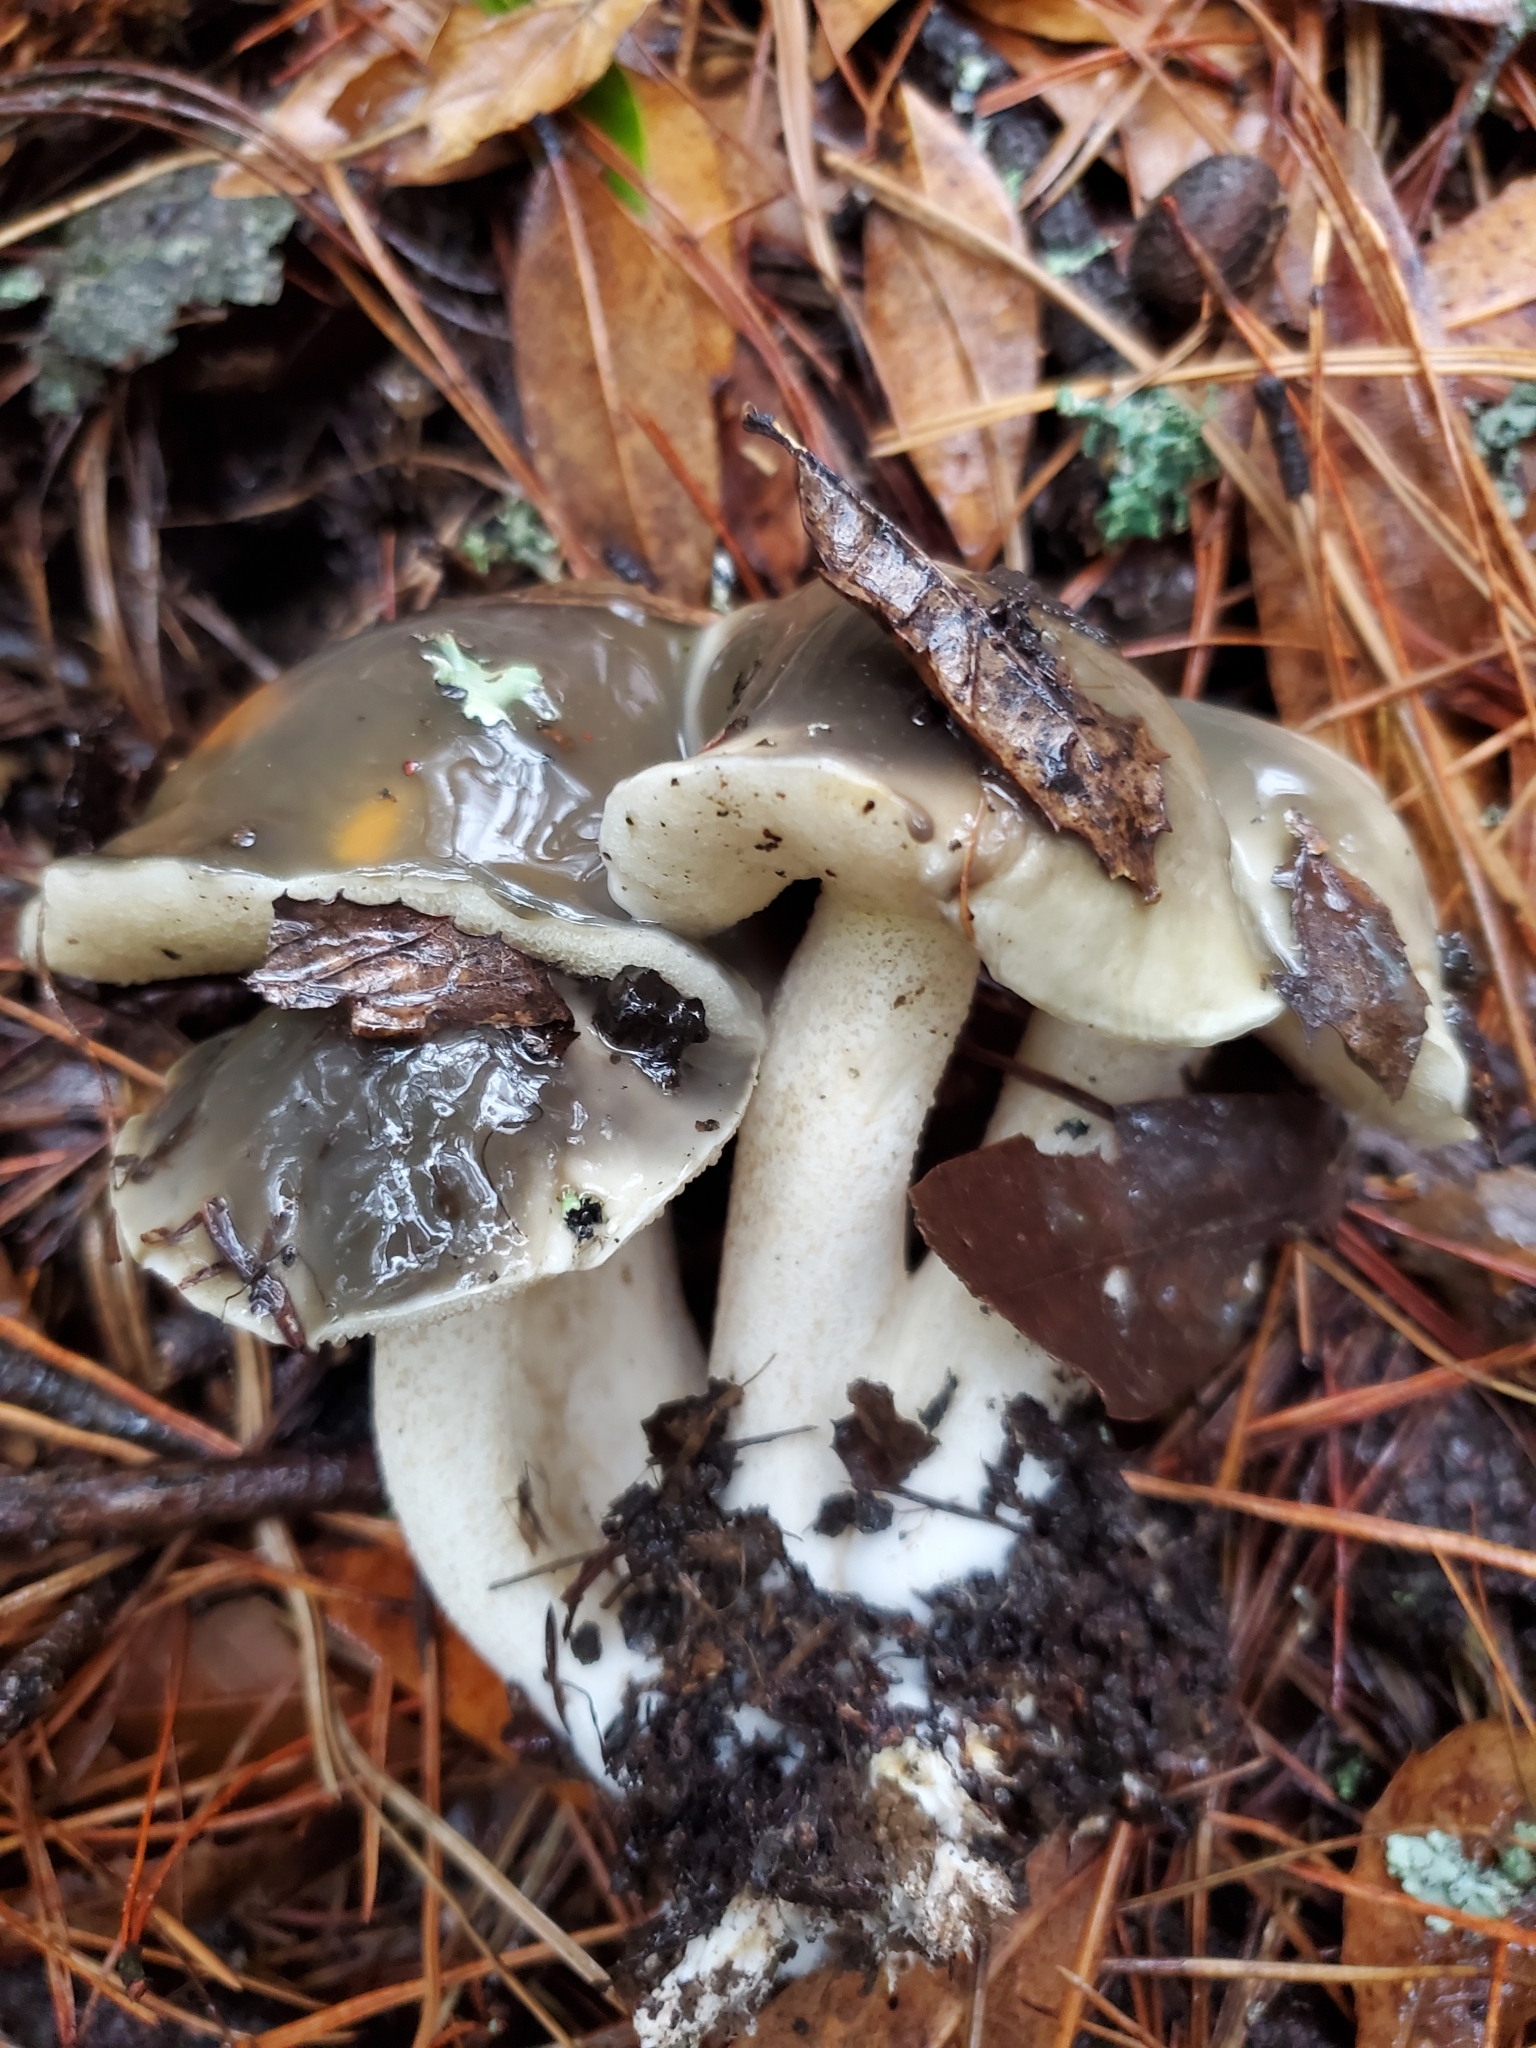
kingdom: Fungi
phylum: Basidiomycota
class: Agaricomycetes
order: Boletales
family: Suillaceae
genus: Suillus
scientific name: Suillus pungens
